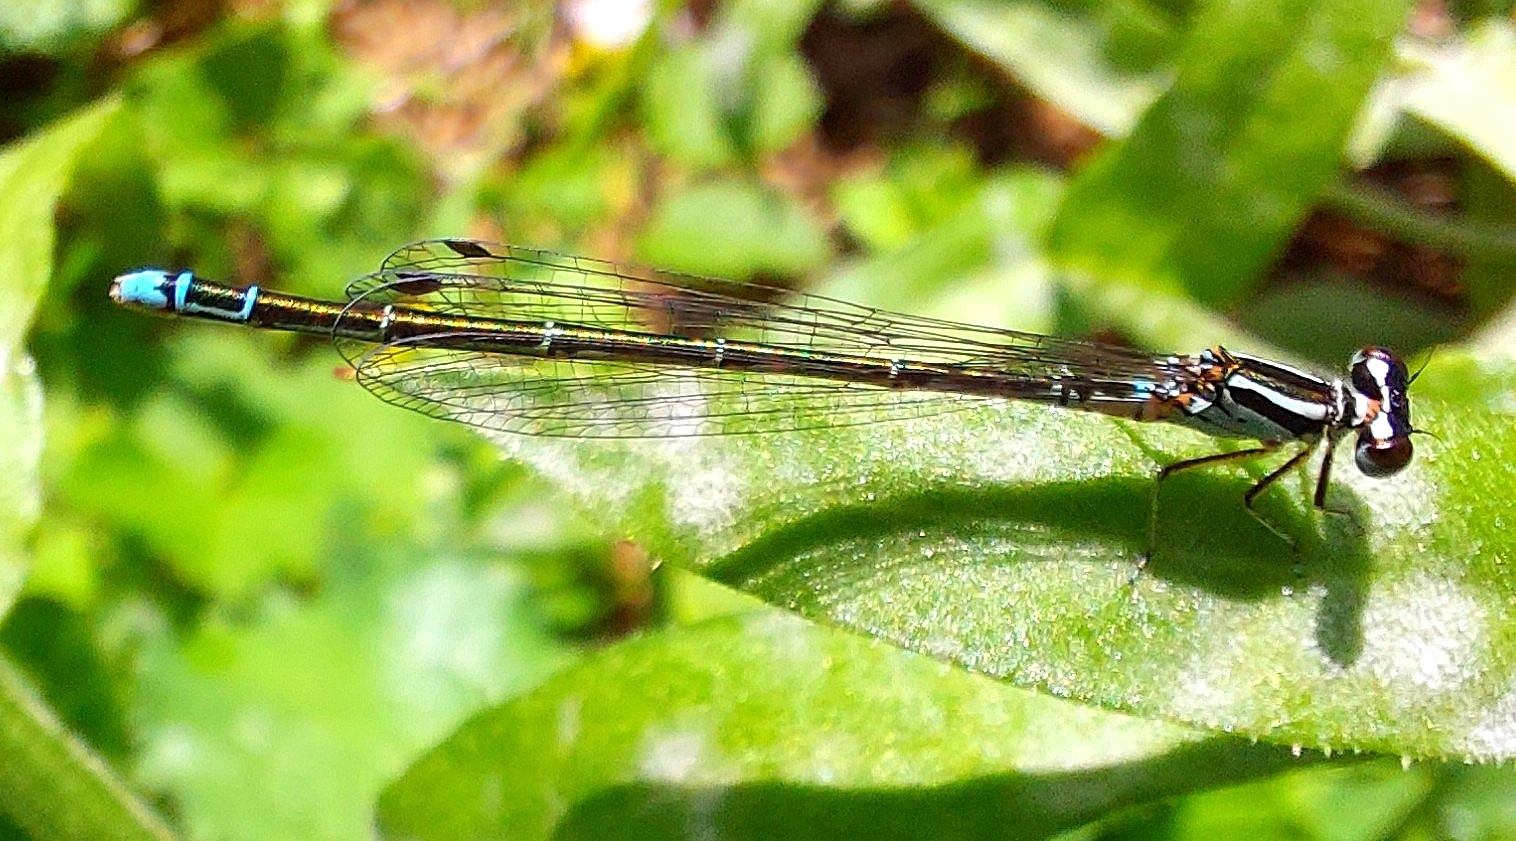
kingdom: Animalia
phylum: Arthropoda
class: Insecta
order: Odonata
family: Coenagrionidae
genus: Coenagrion
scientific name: Coenagrion johanssoni
